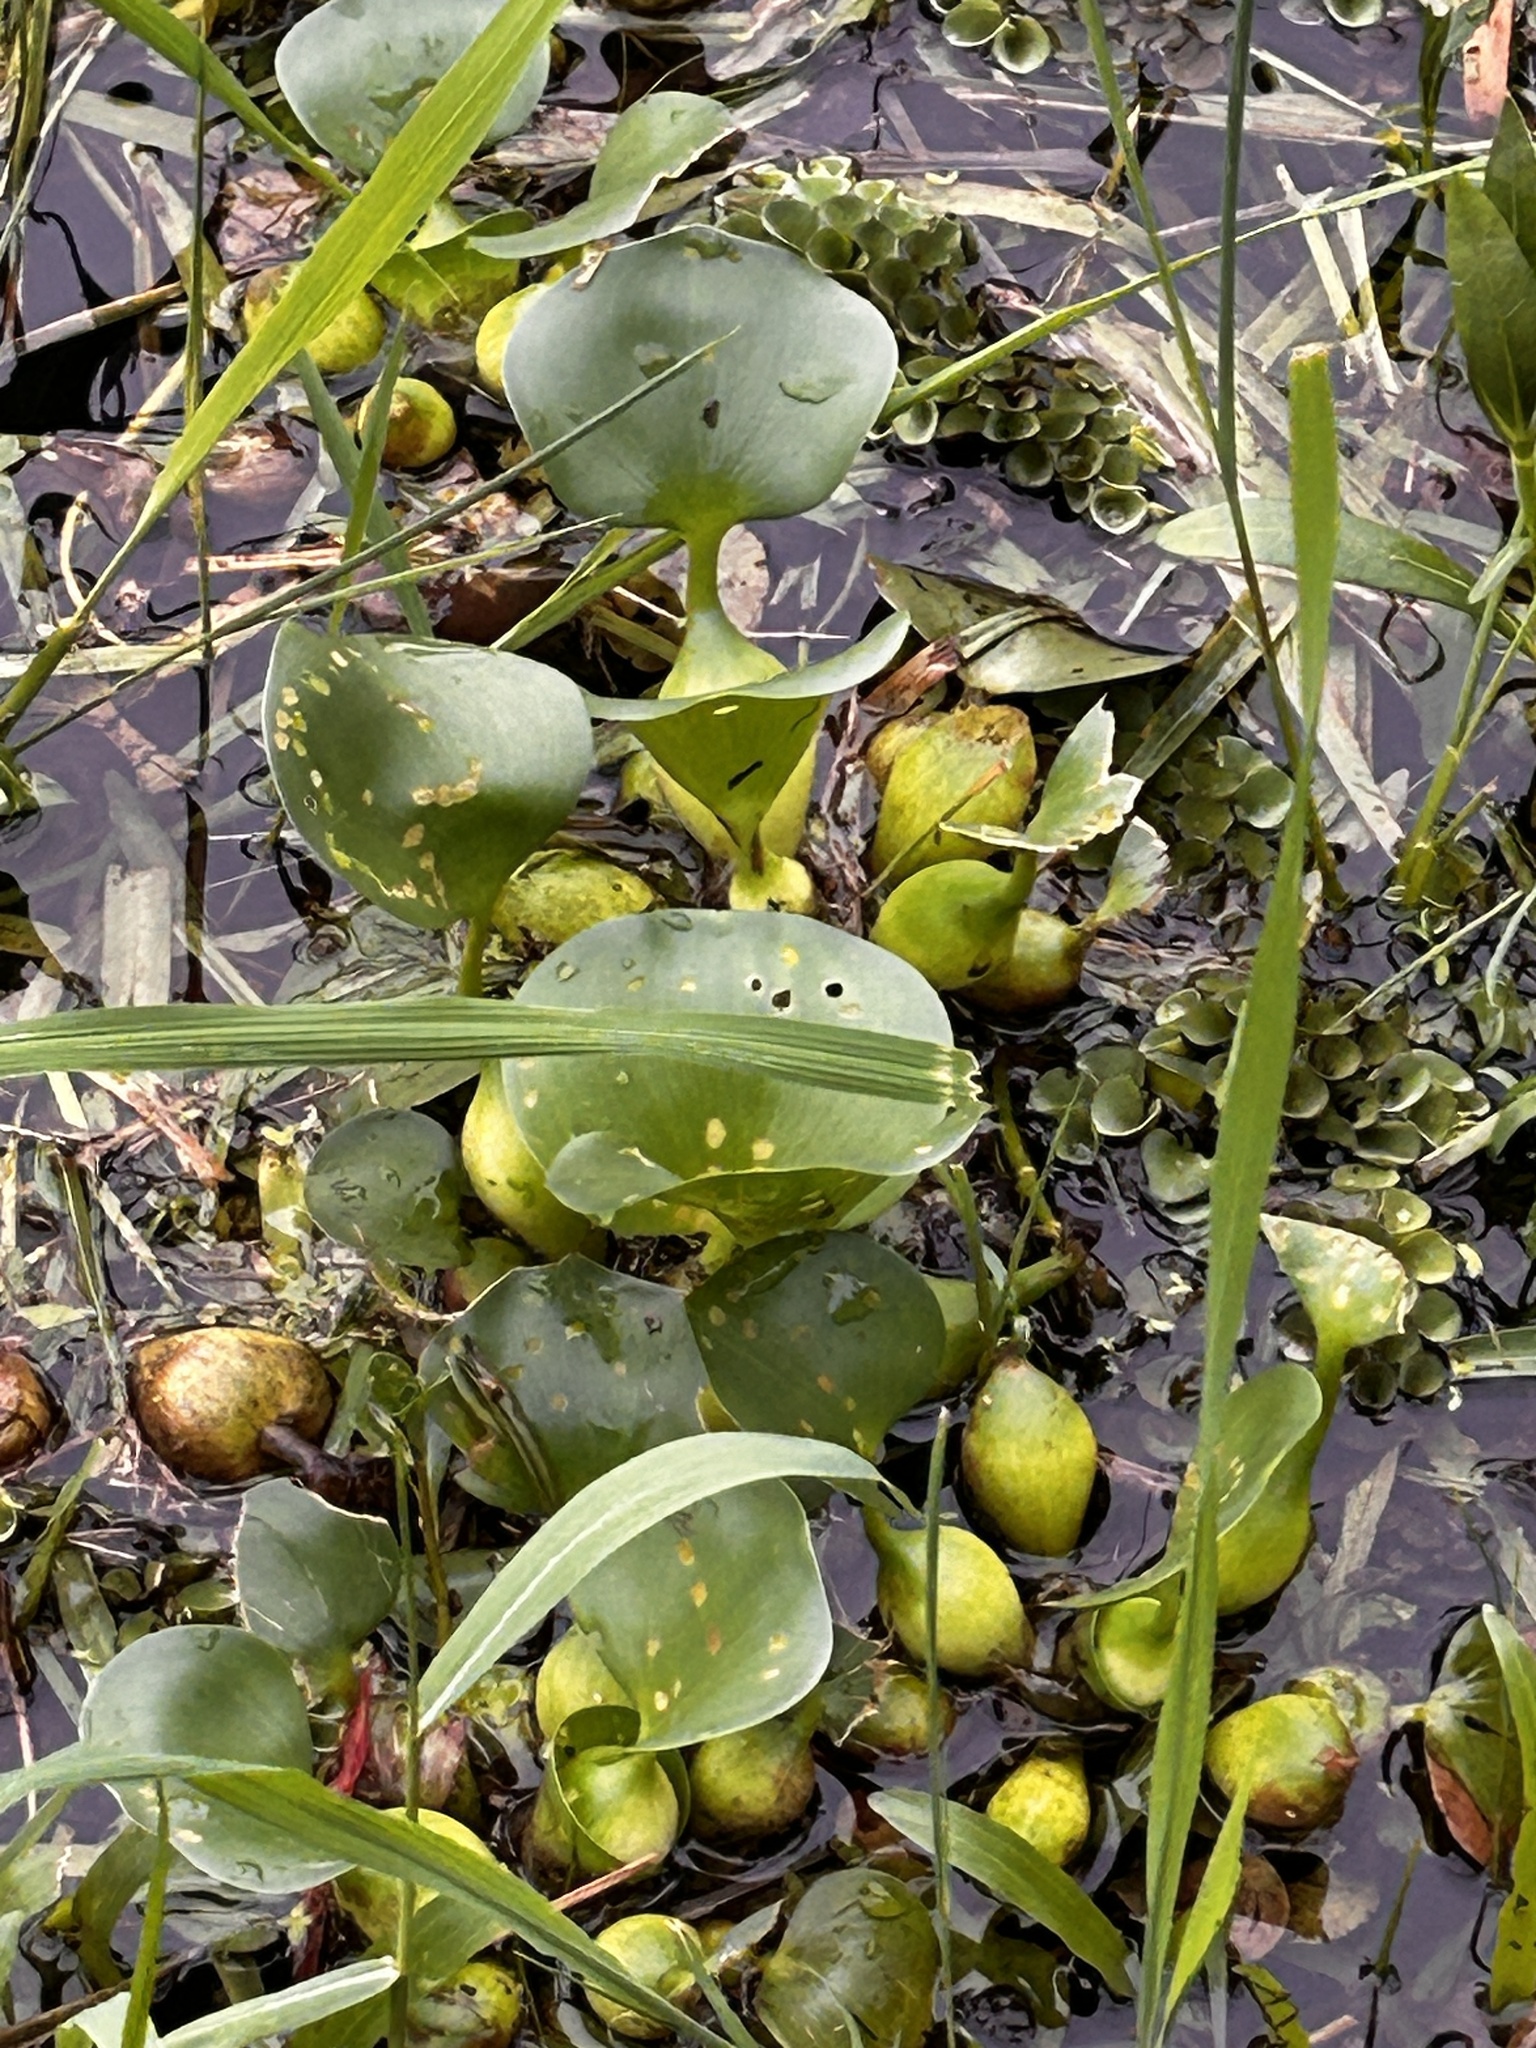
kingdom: Plantae
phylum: Tracheophyta
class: Liliopsida
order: Commelinales
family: Pontederiaceae
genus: Pontederia
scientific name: Pontederia crassipes
